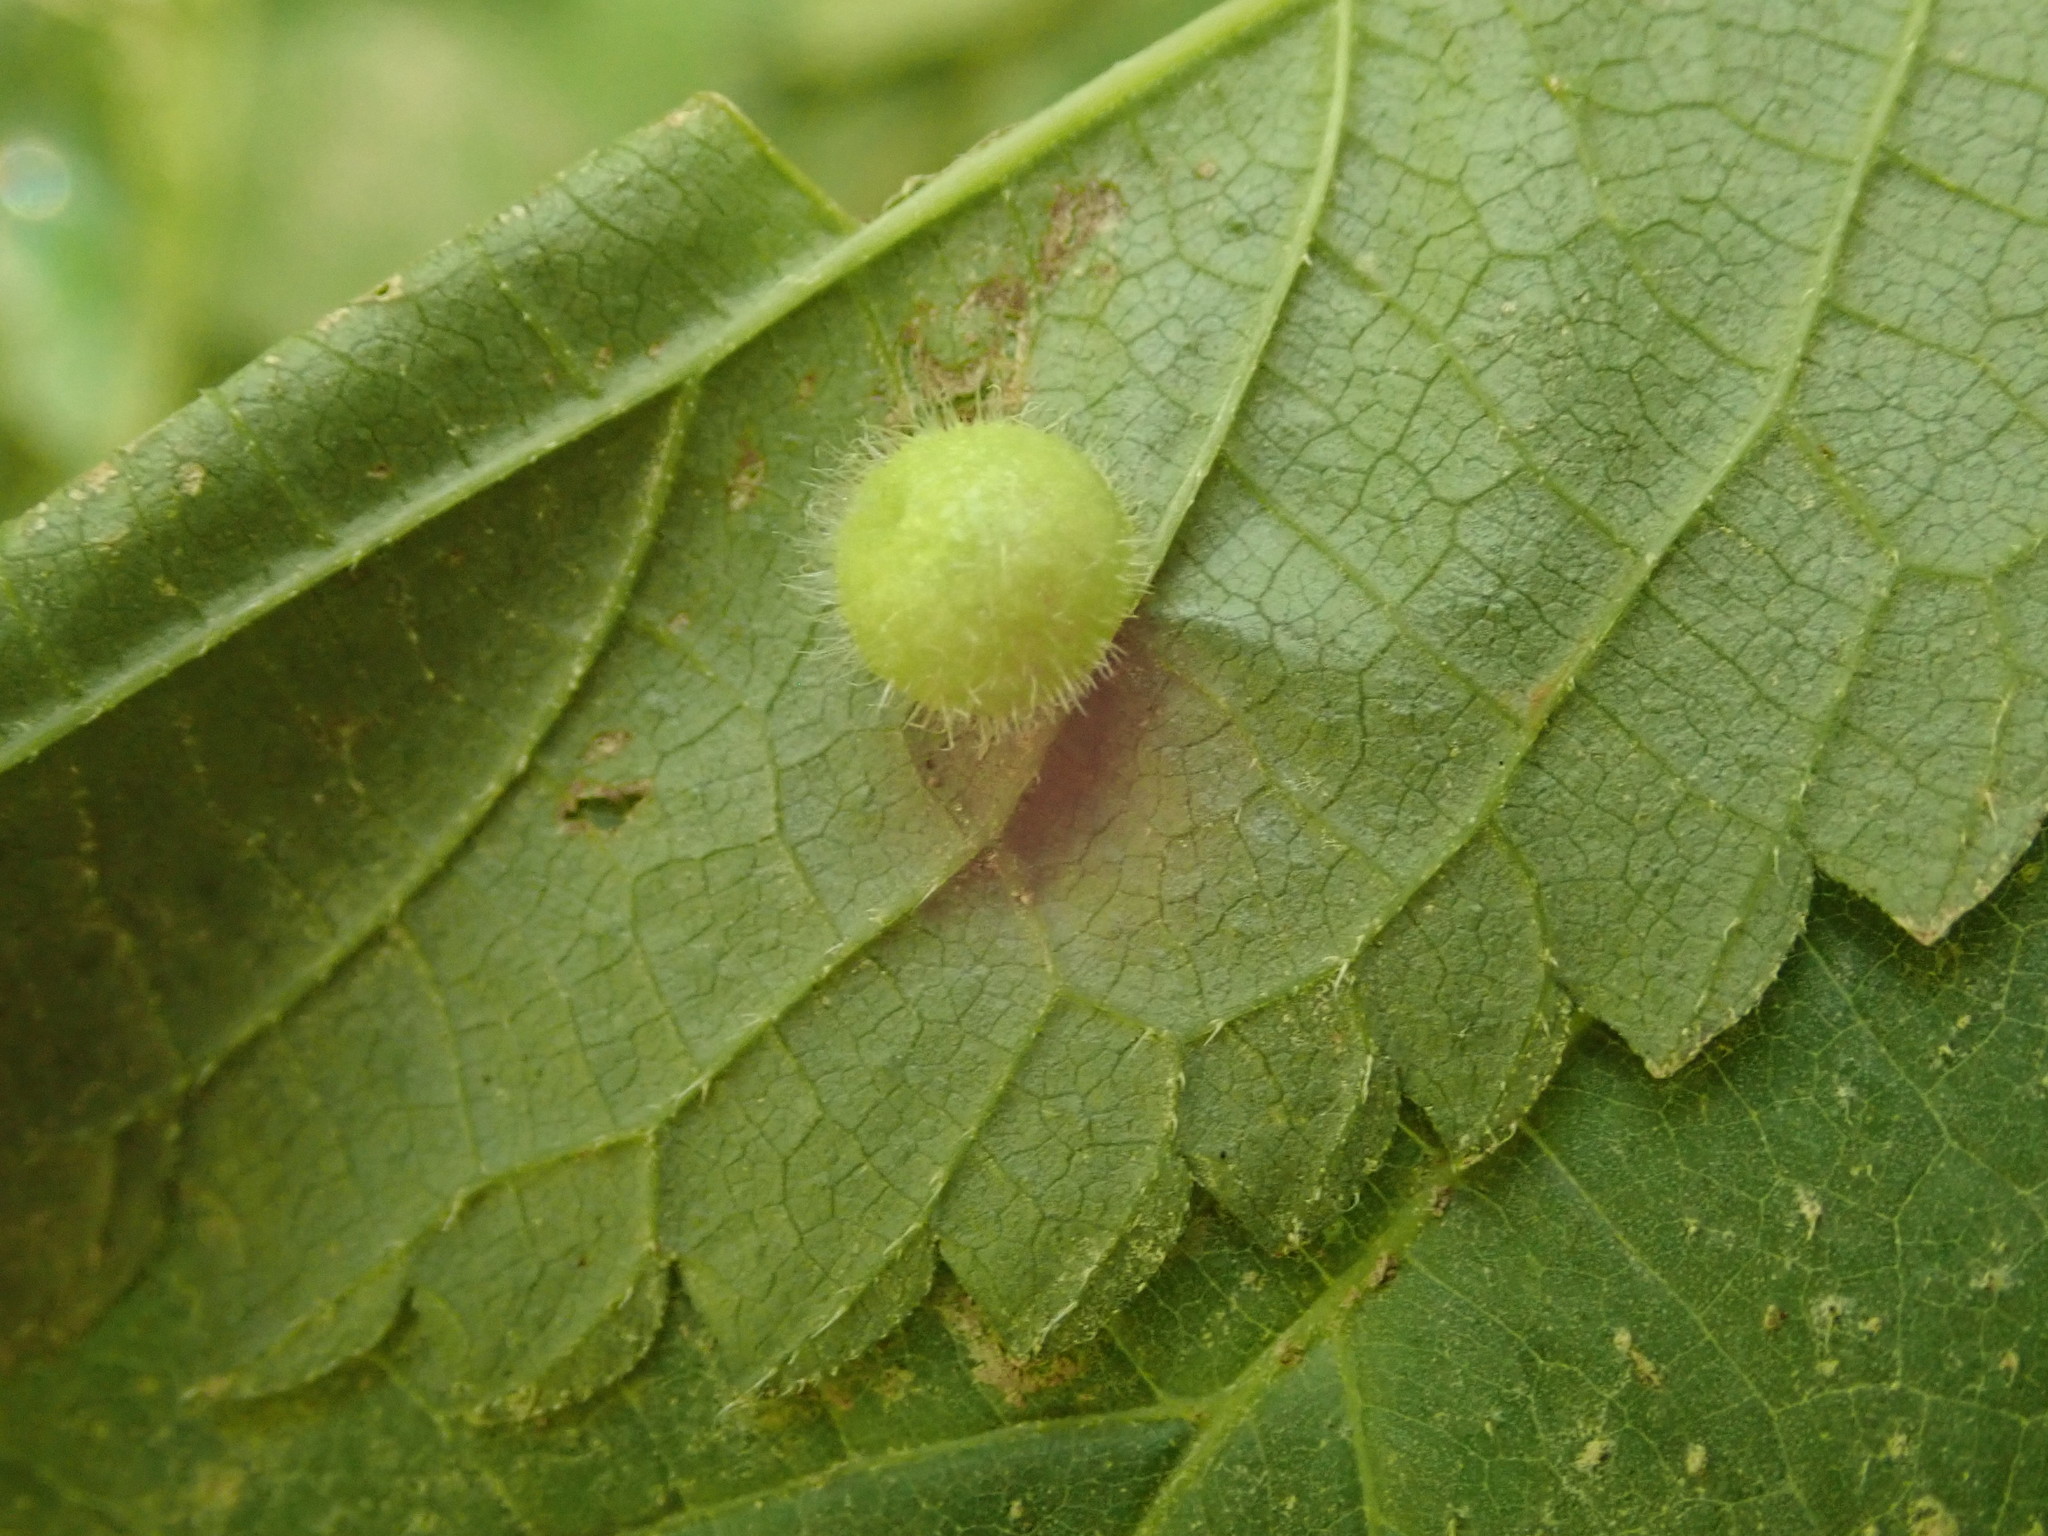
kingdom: Animalia
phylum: Arthropoda
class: Insecta
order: Diptera
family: Cecidomyiidae
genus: Dasineura
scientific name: Dasineura pilosa
